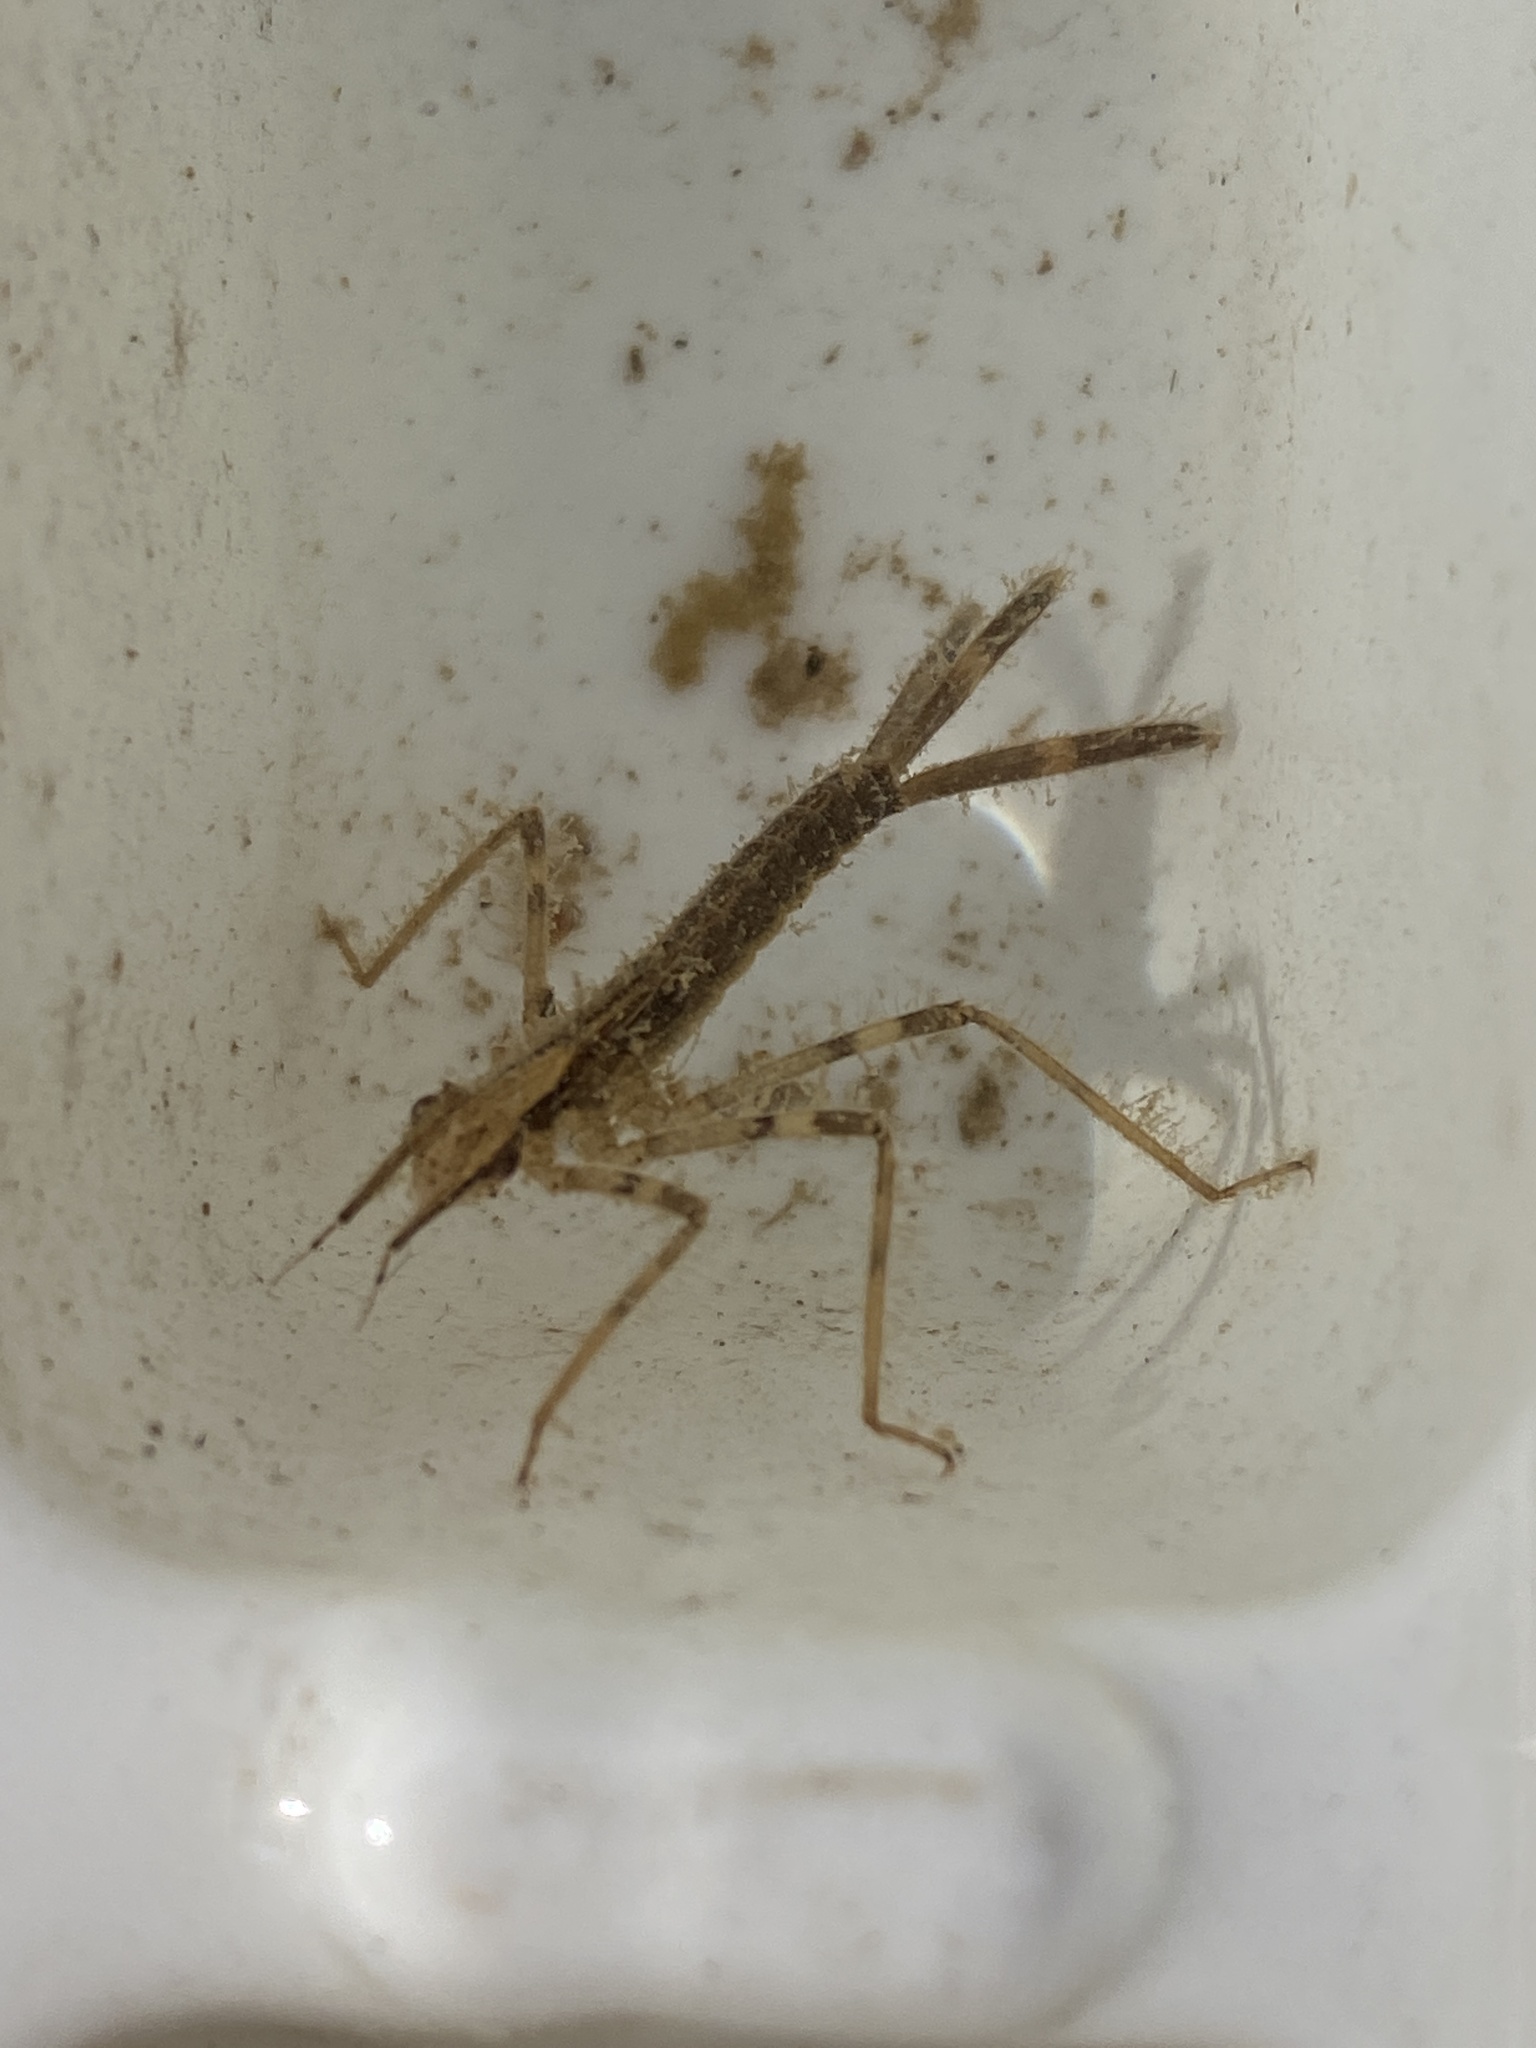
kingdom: Animalia
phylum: Arthropoda
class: Insecta
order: Odonata
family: Calopterygidae
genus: Calopteryx
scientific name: Calopteryx maculata
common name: Ebony jewelwing
